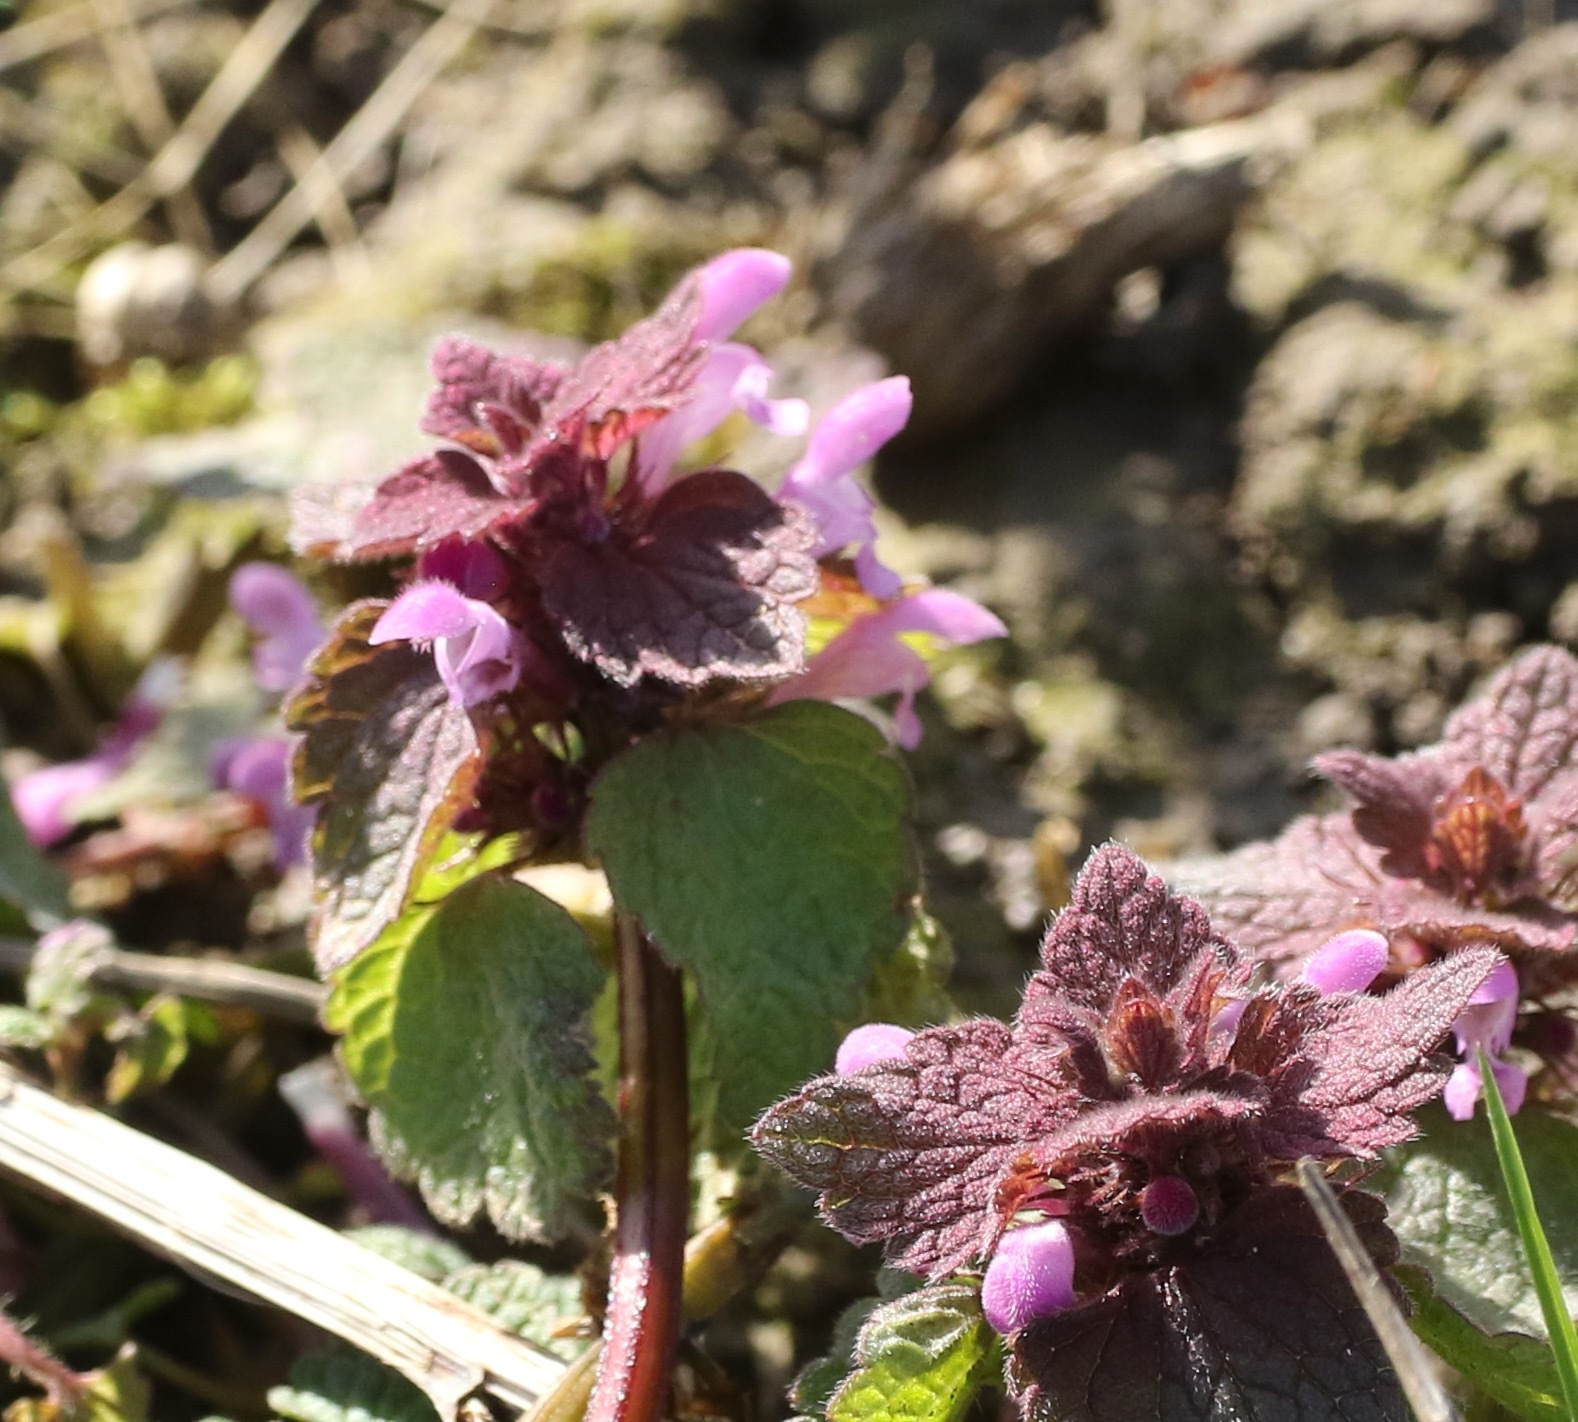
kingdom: Plantae
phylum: Tracheophyta
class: Magnoliopsida
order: Lamiales
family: Lamiaceae
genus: Lamium
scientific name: Lamium purpureum
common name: Red dead-nettle
